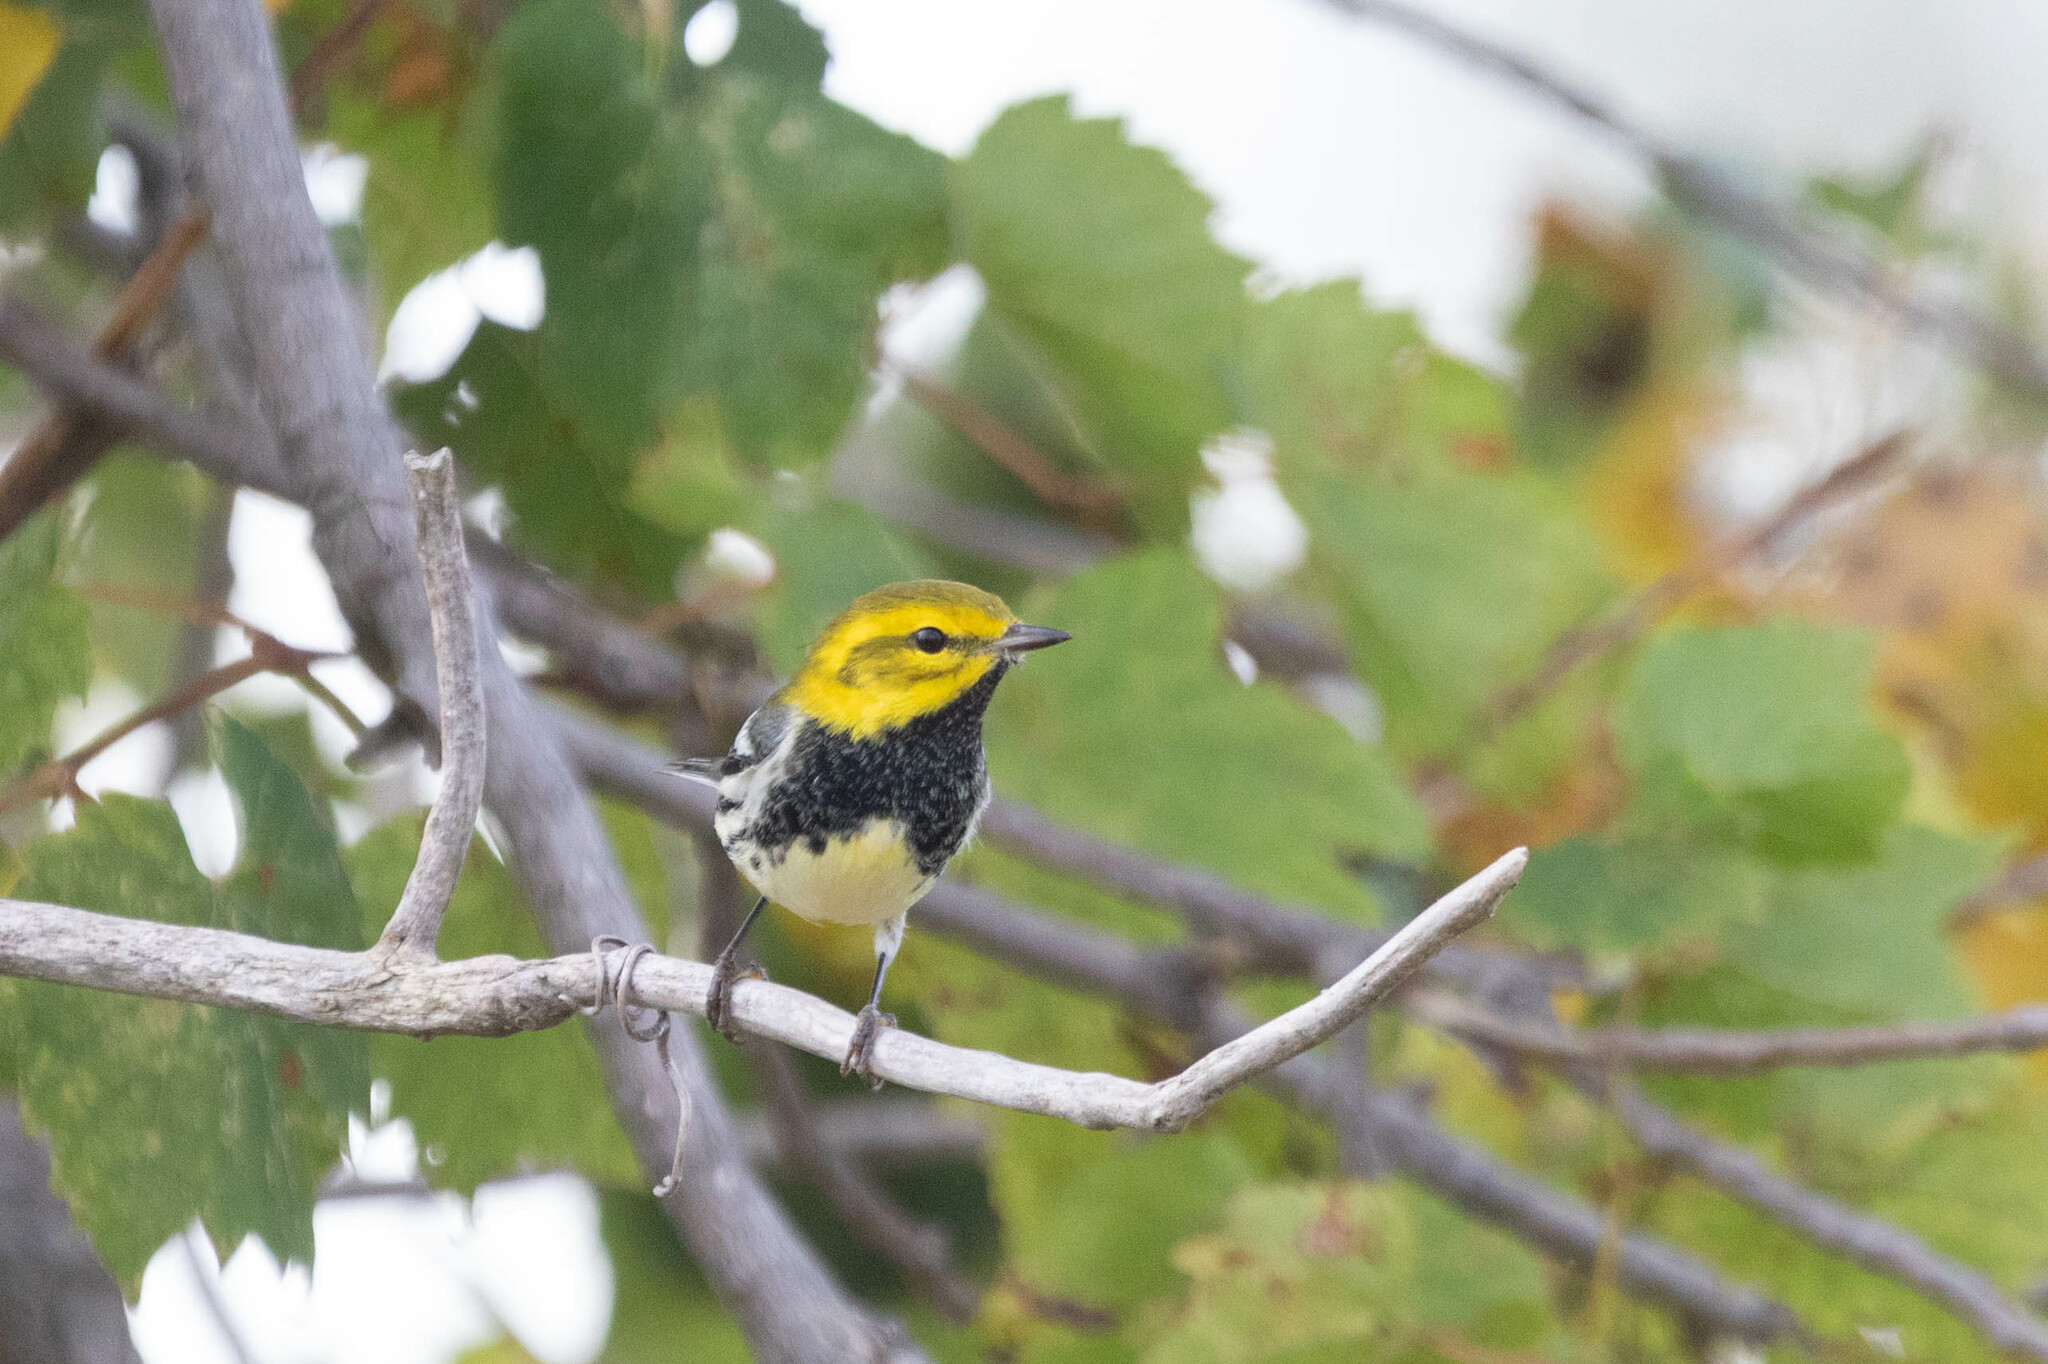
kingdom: Animalia
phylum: Chordata
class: Aves
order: Passeriformes
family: Parulidae
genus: Setophaga
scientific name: Setophaga virens
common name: Black-throated green warbler
